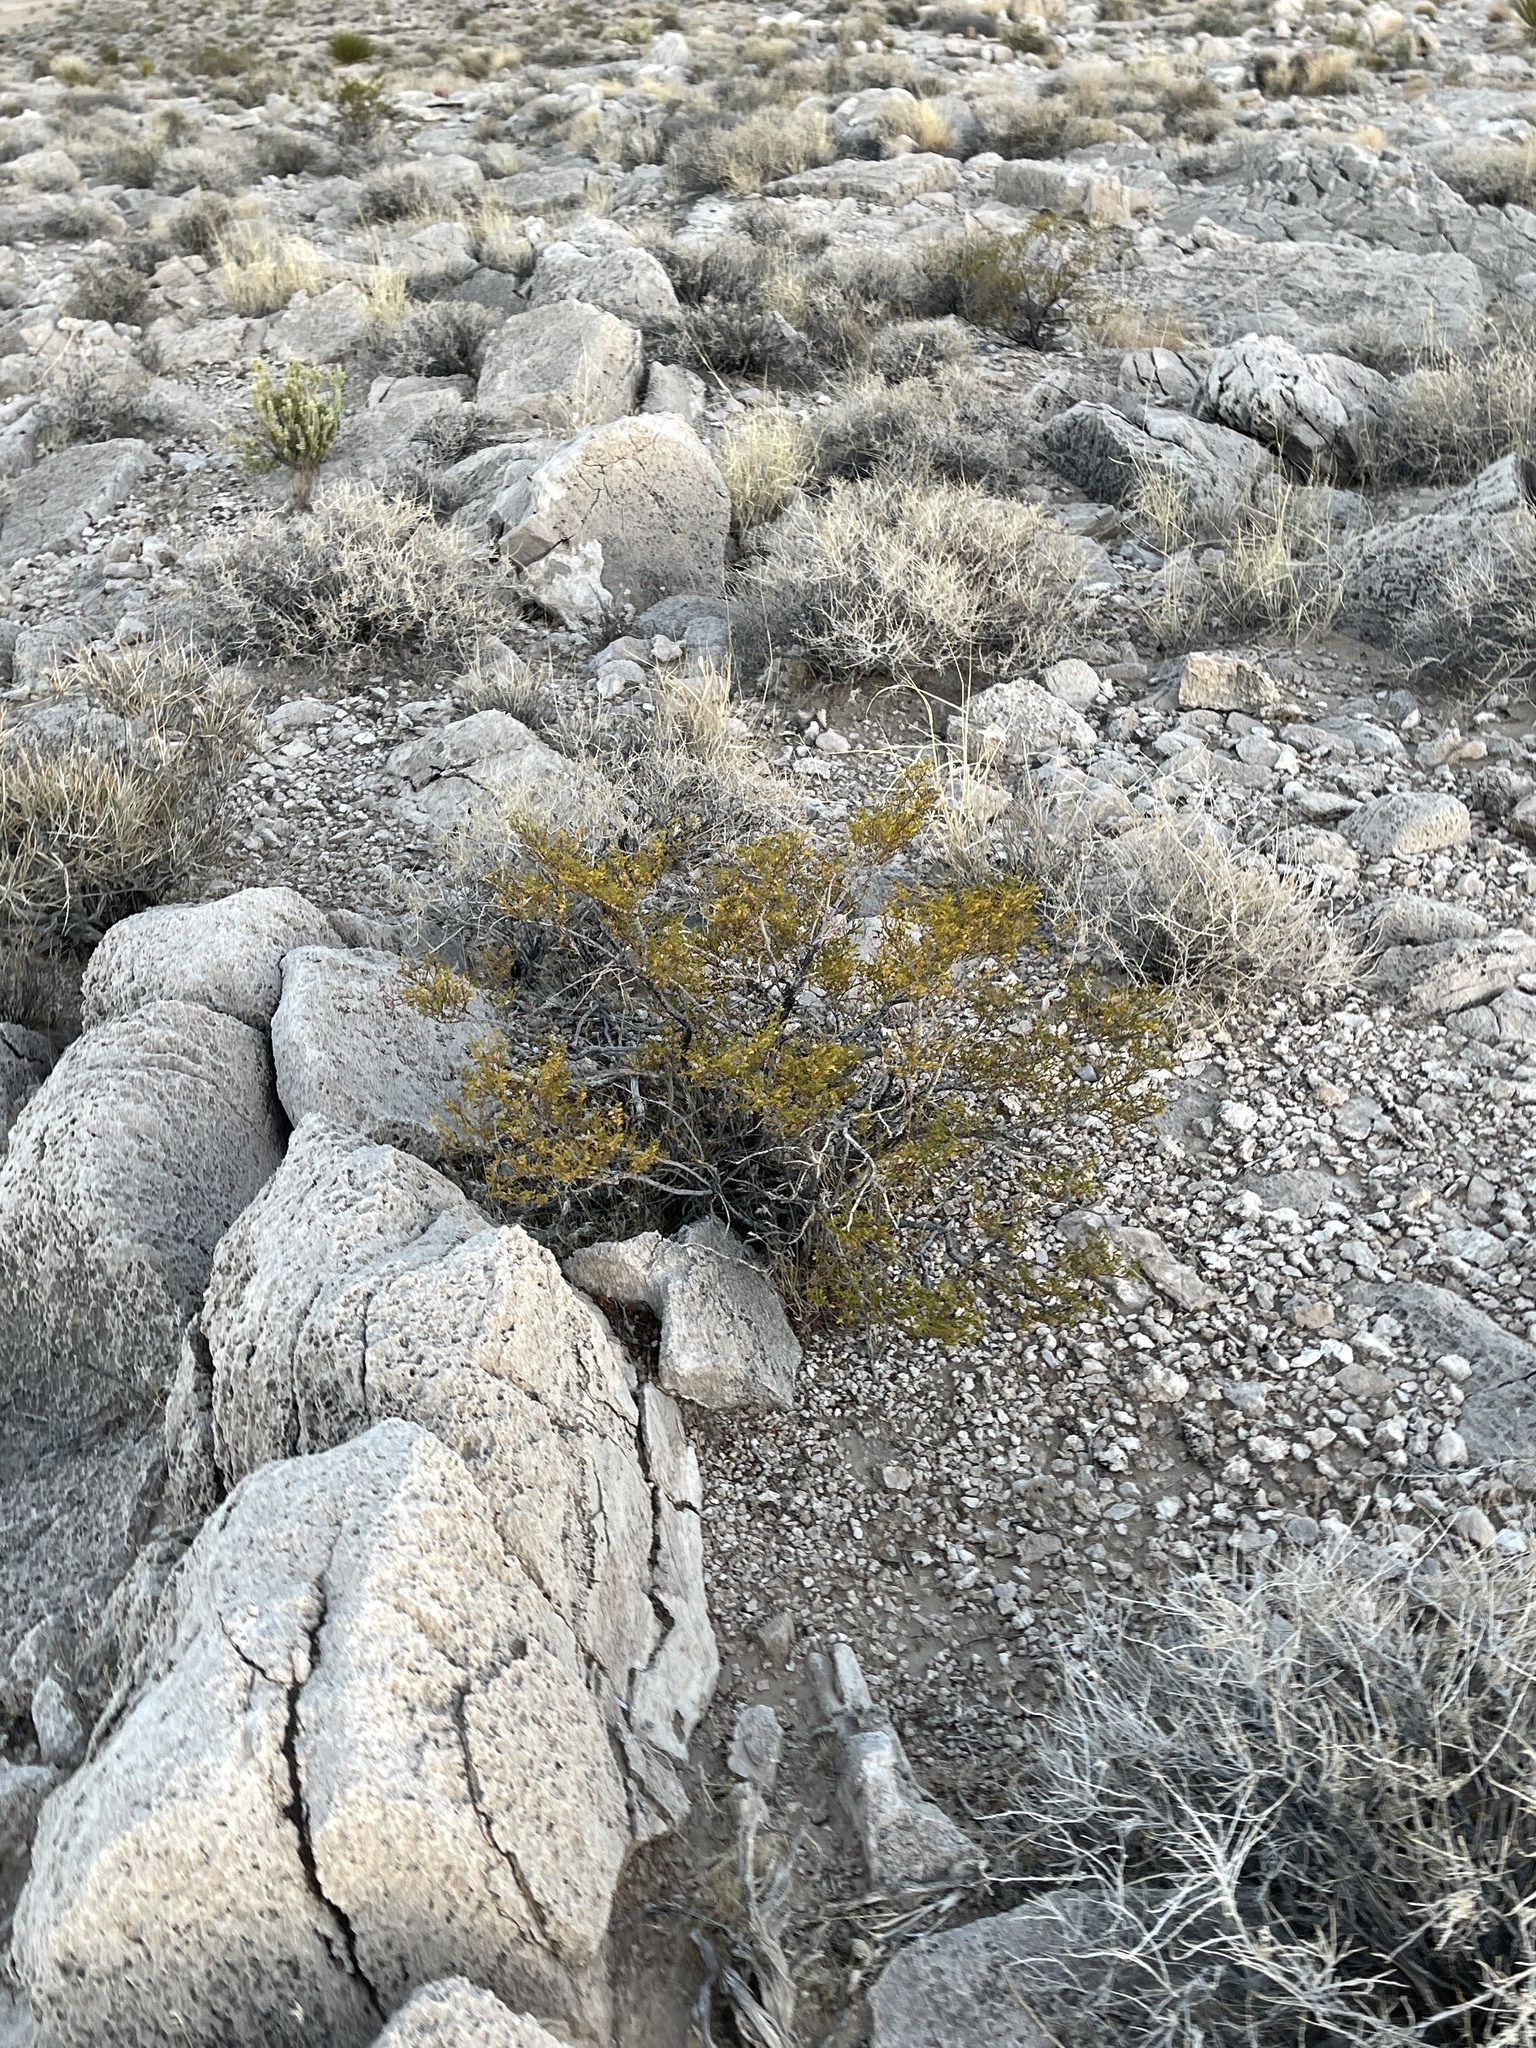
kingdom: Plantae
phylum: Tracheophyta
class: Magnoliopsida
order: Zygophyllales
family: Zygophyllaceae
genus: Larrea
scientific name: Larrea tridentata
